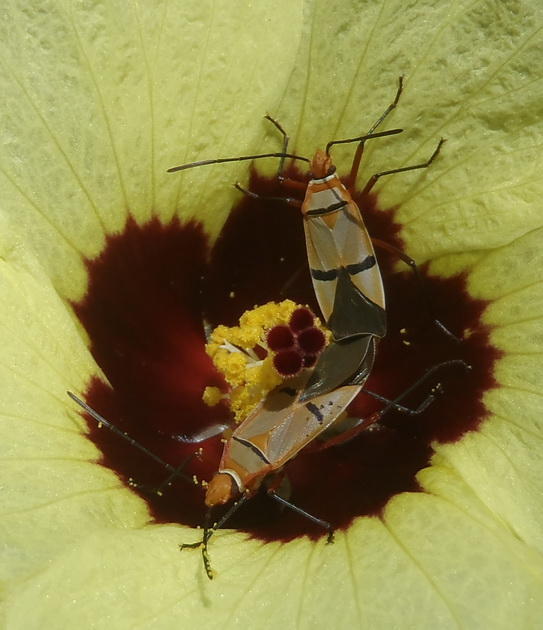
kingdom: Animalia
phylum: Arthropoda
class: Insecta
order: Hemiptera
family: Pyrrhocoridae
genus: Dysdercus
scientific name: Dysdercus
